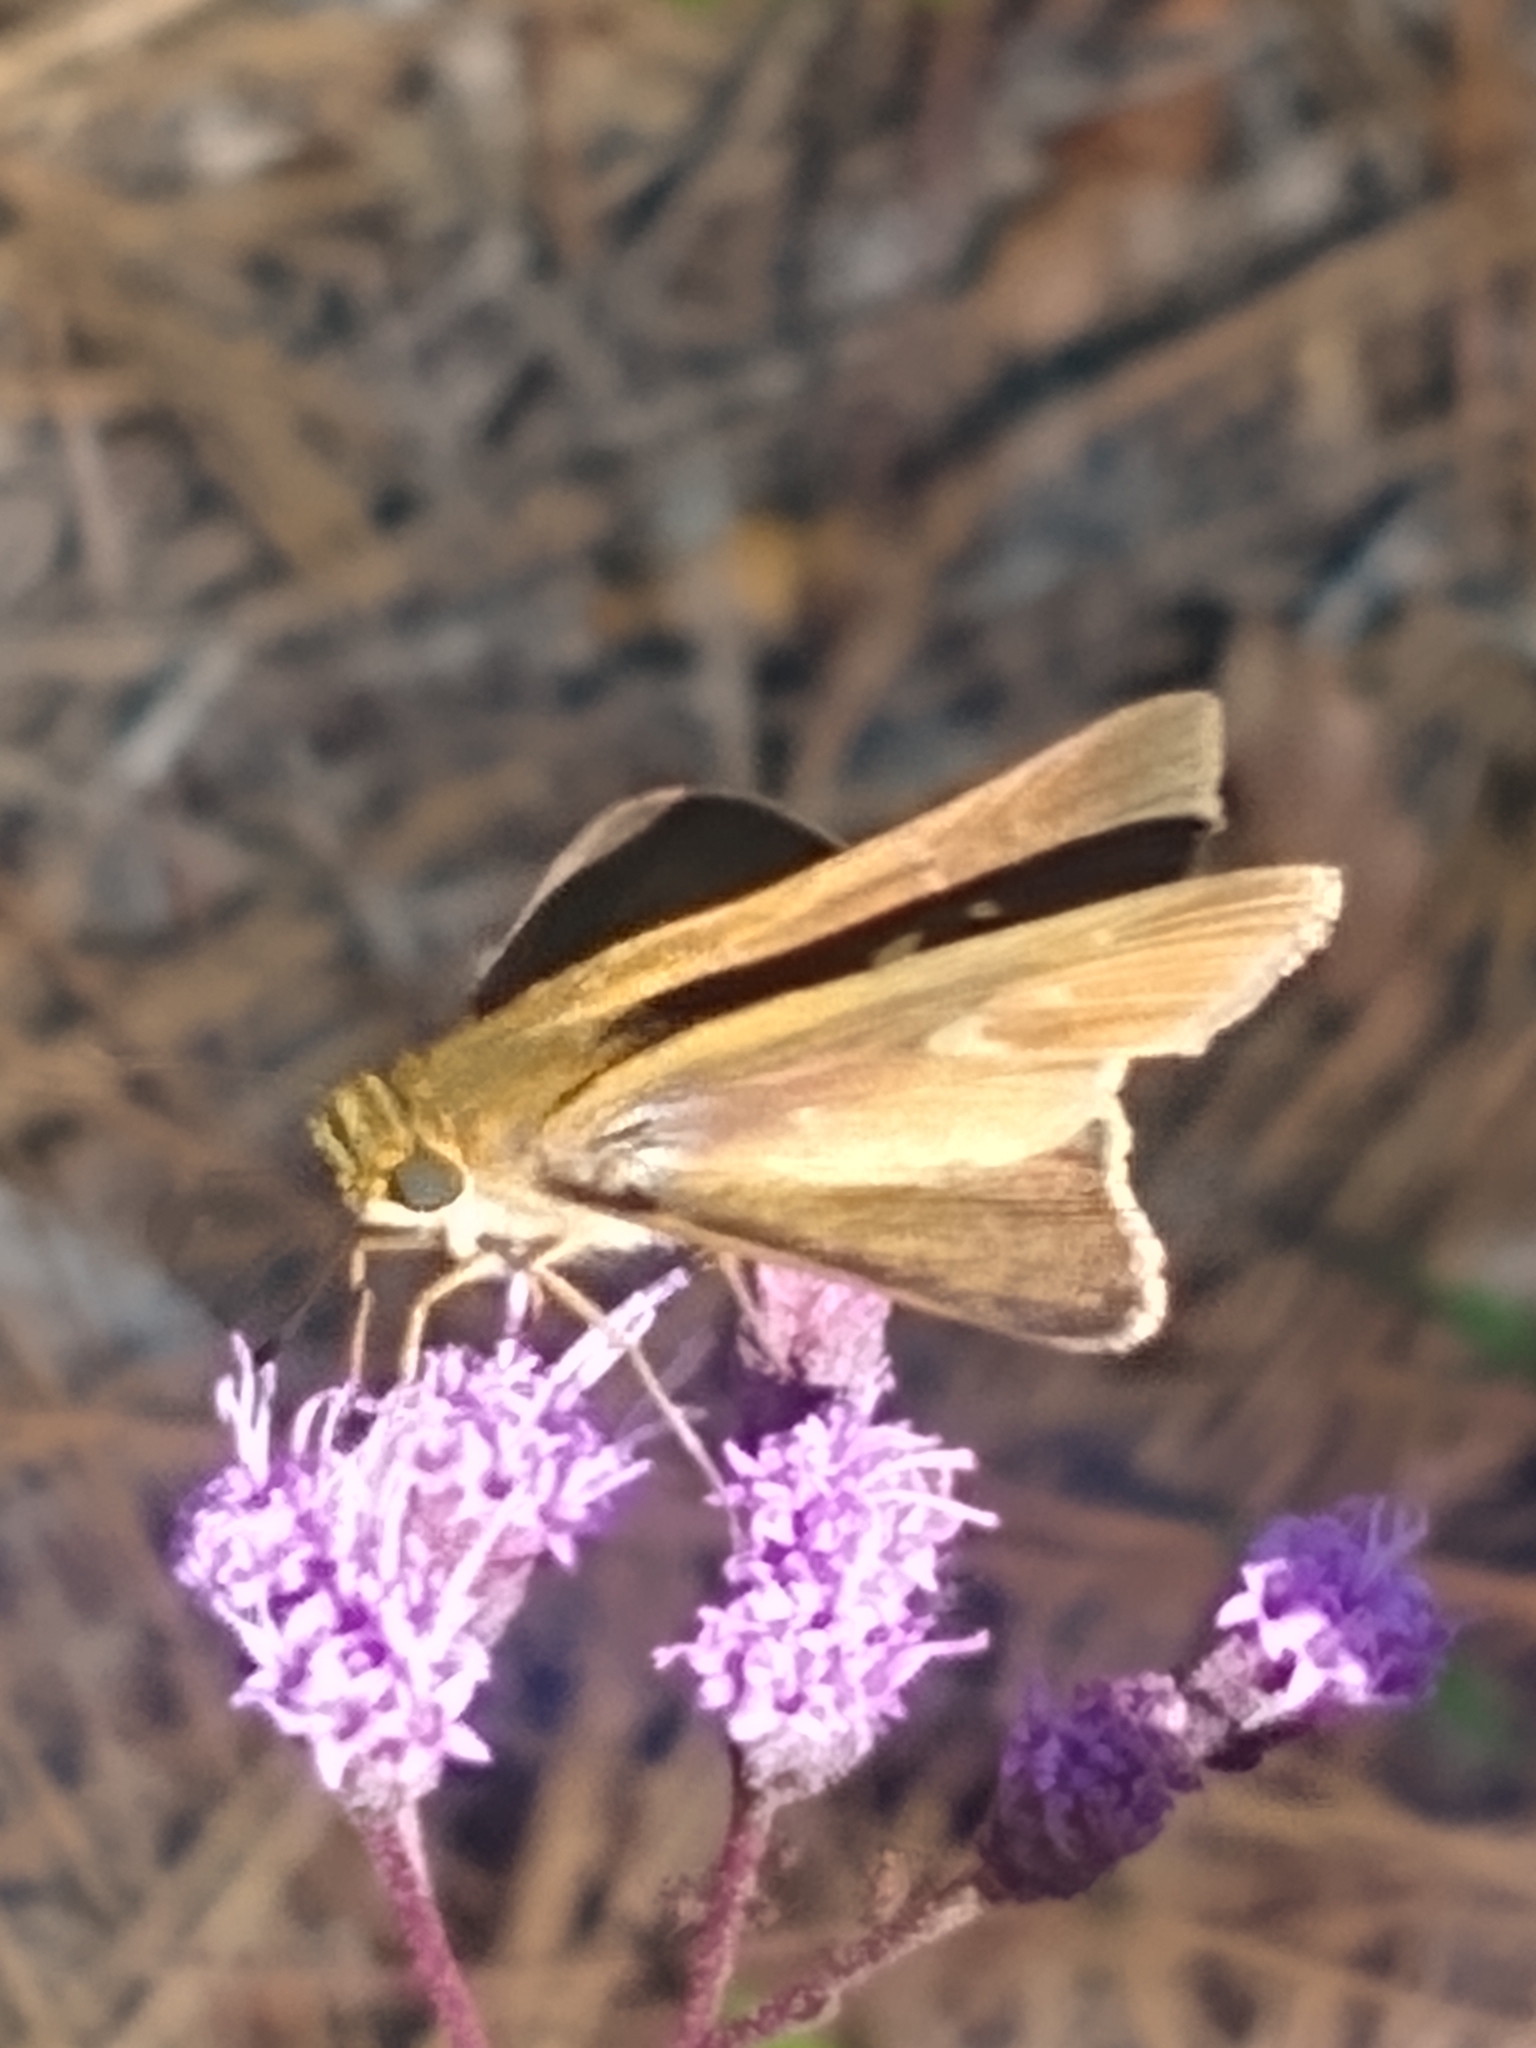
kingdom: Animalia
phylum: Arthropoda
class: Insecta
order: Lepidoptera
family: Hesperiidae
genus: Panoquina
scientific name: Panoquina ocola
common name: Ocola skipper
